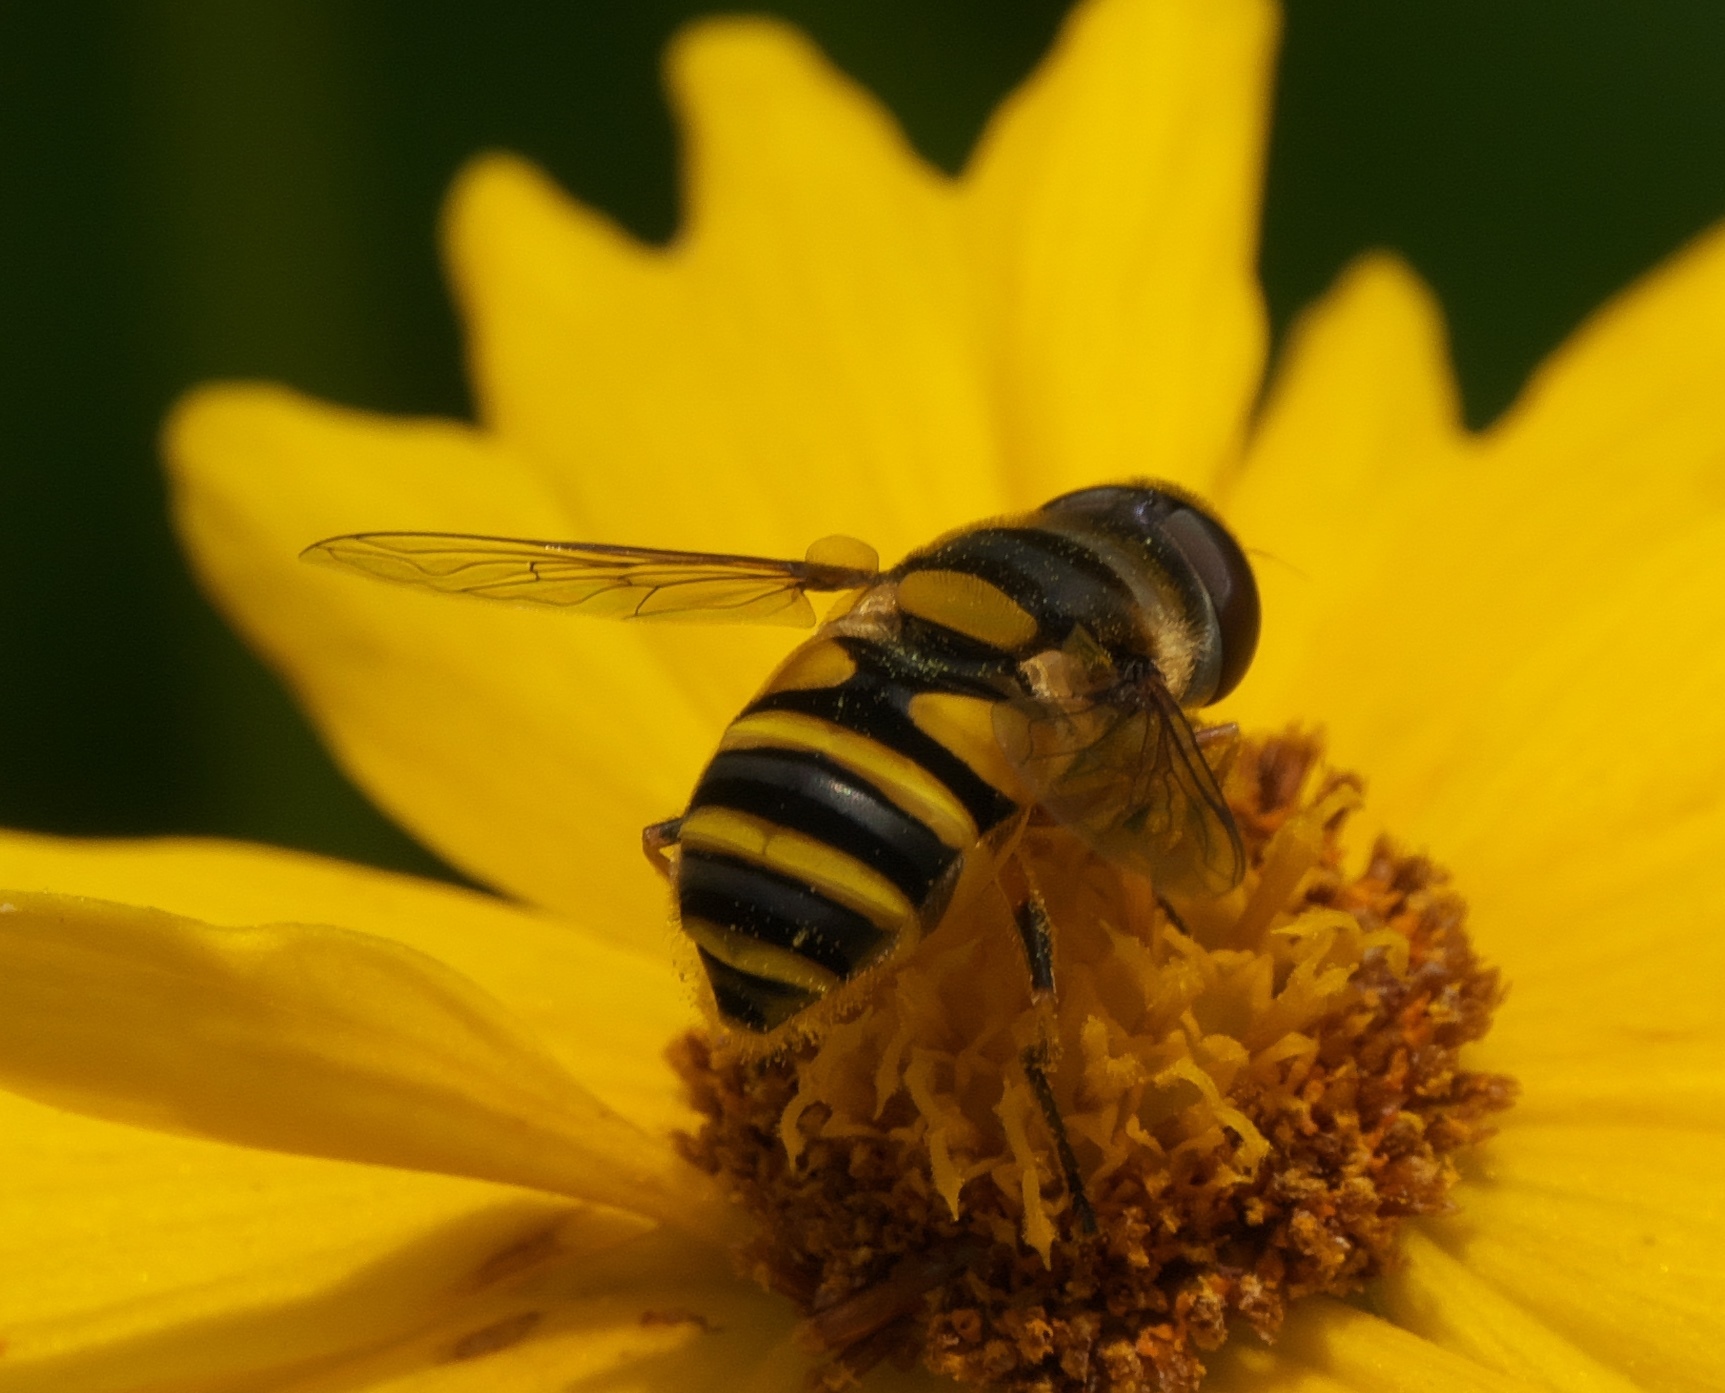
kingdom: Animalia
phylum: Arthropoda
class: Insecta
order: Diptera
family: Syrphidae
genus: Eristalis
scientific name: Eristalis transversa
